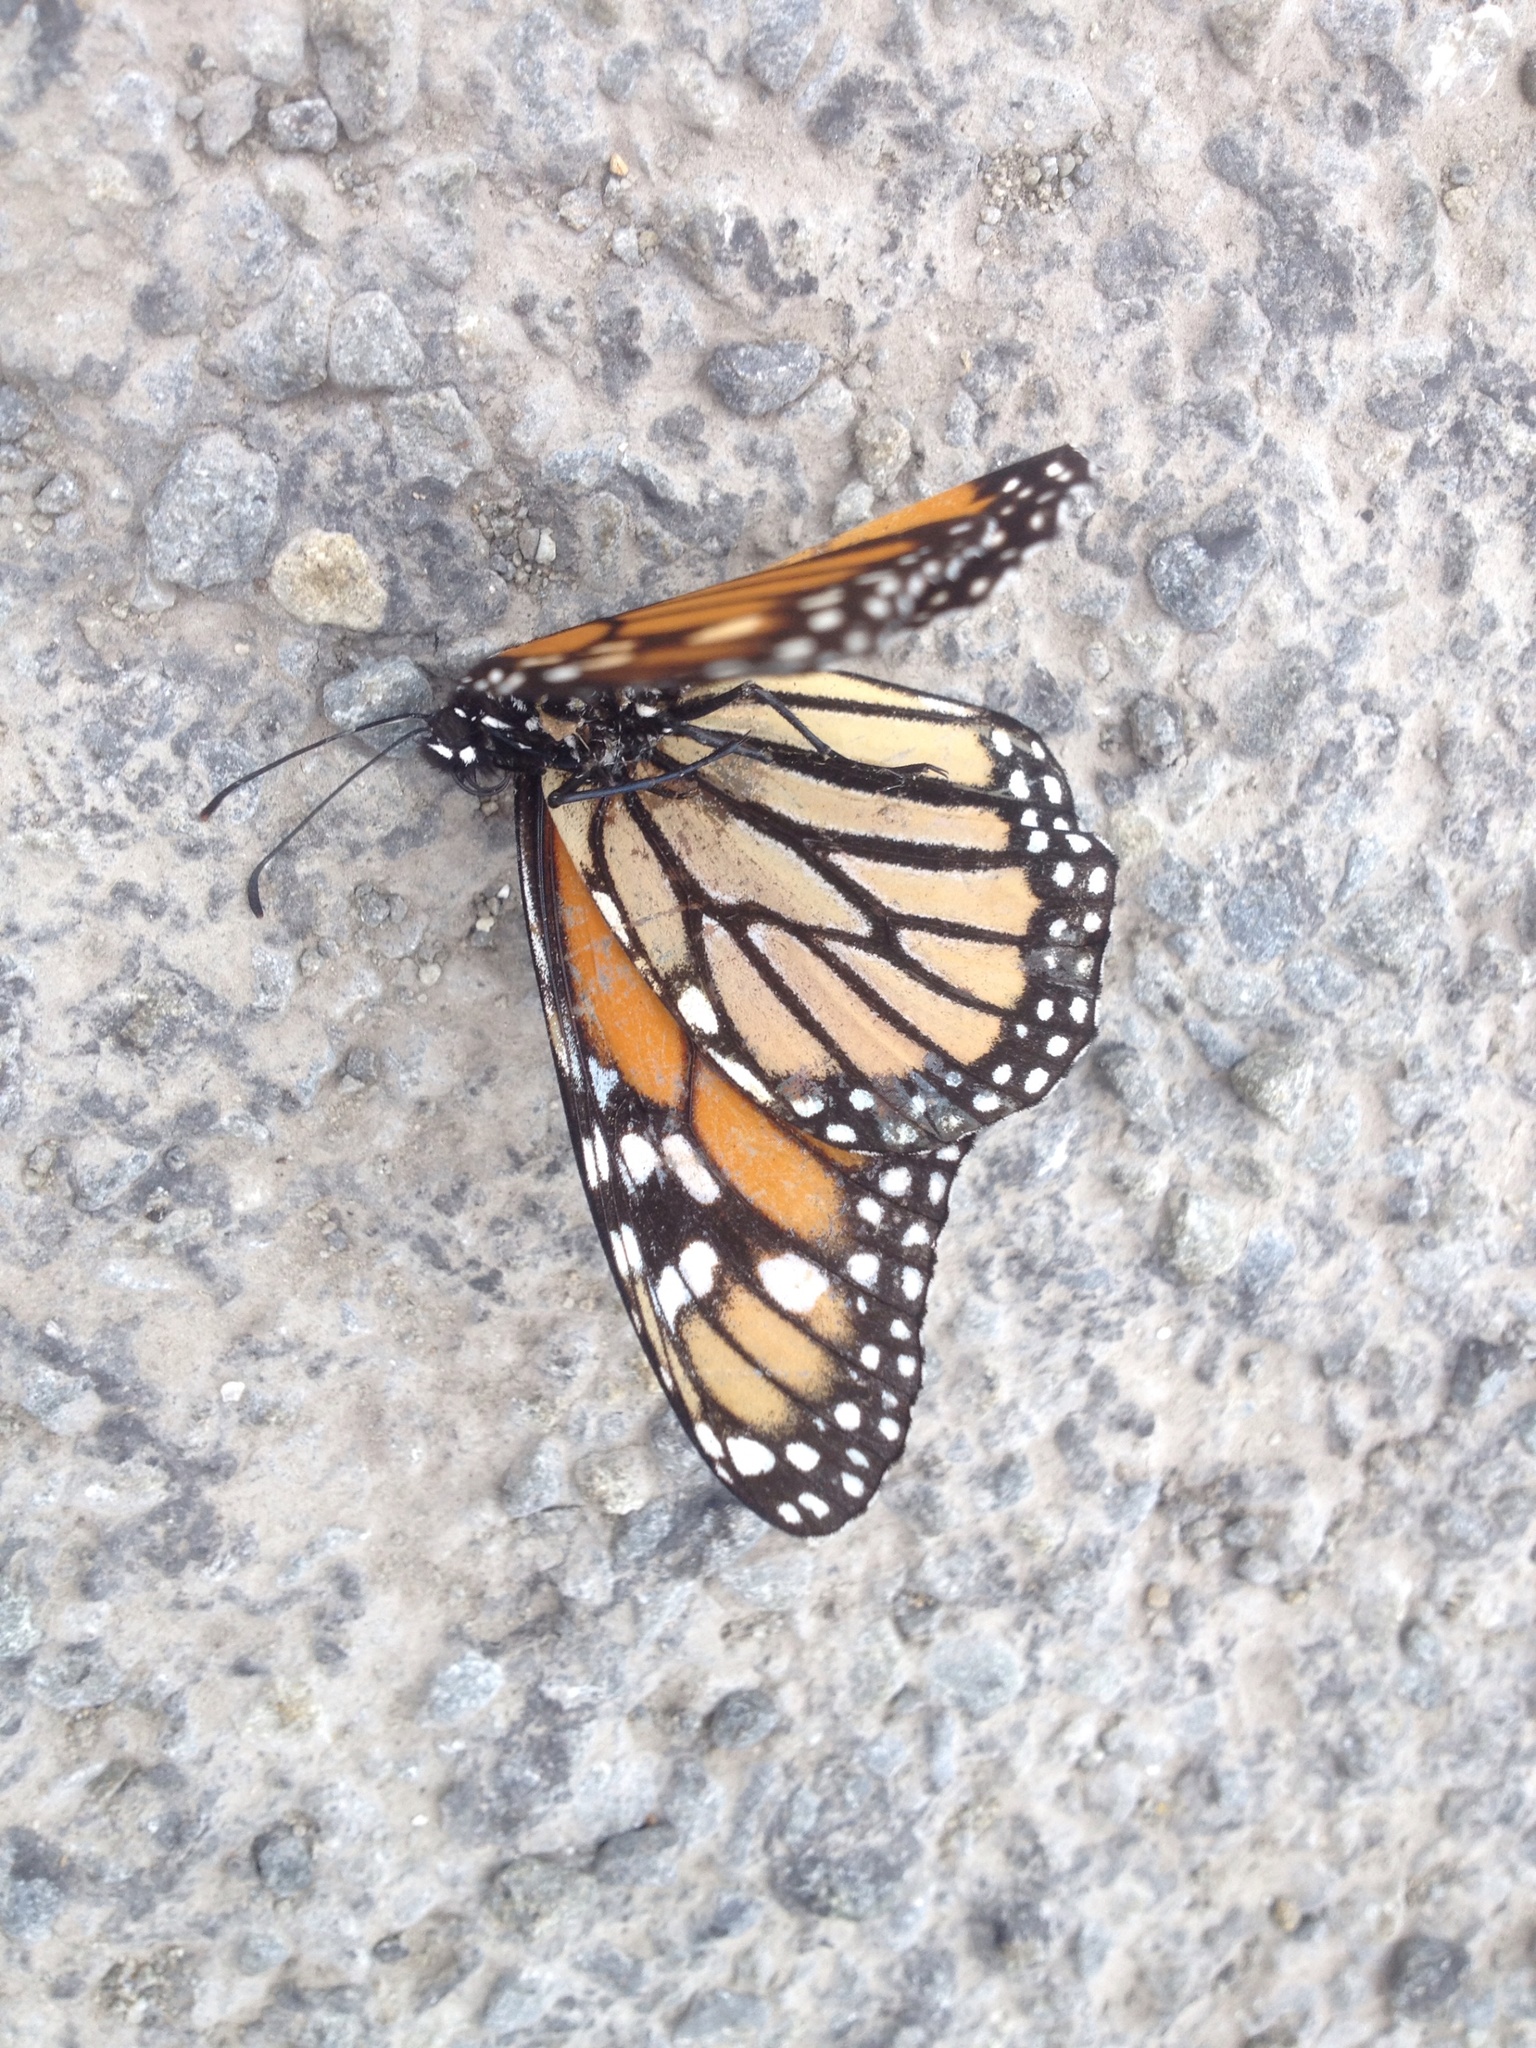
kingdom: Animalia
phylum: Arthropoda
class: Insecta
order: Lepidoptera
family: Nymphalidae
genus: Danaus
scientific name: Danaus plexippus
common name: Monarch
